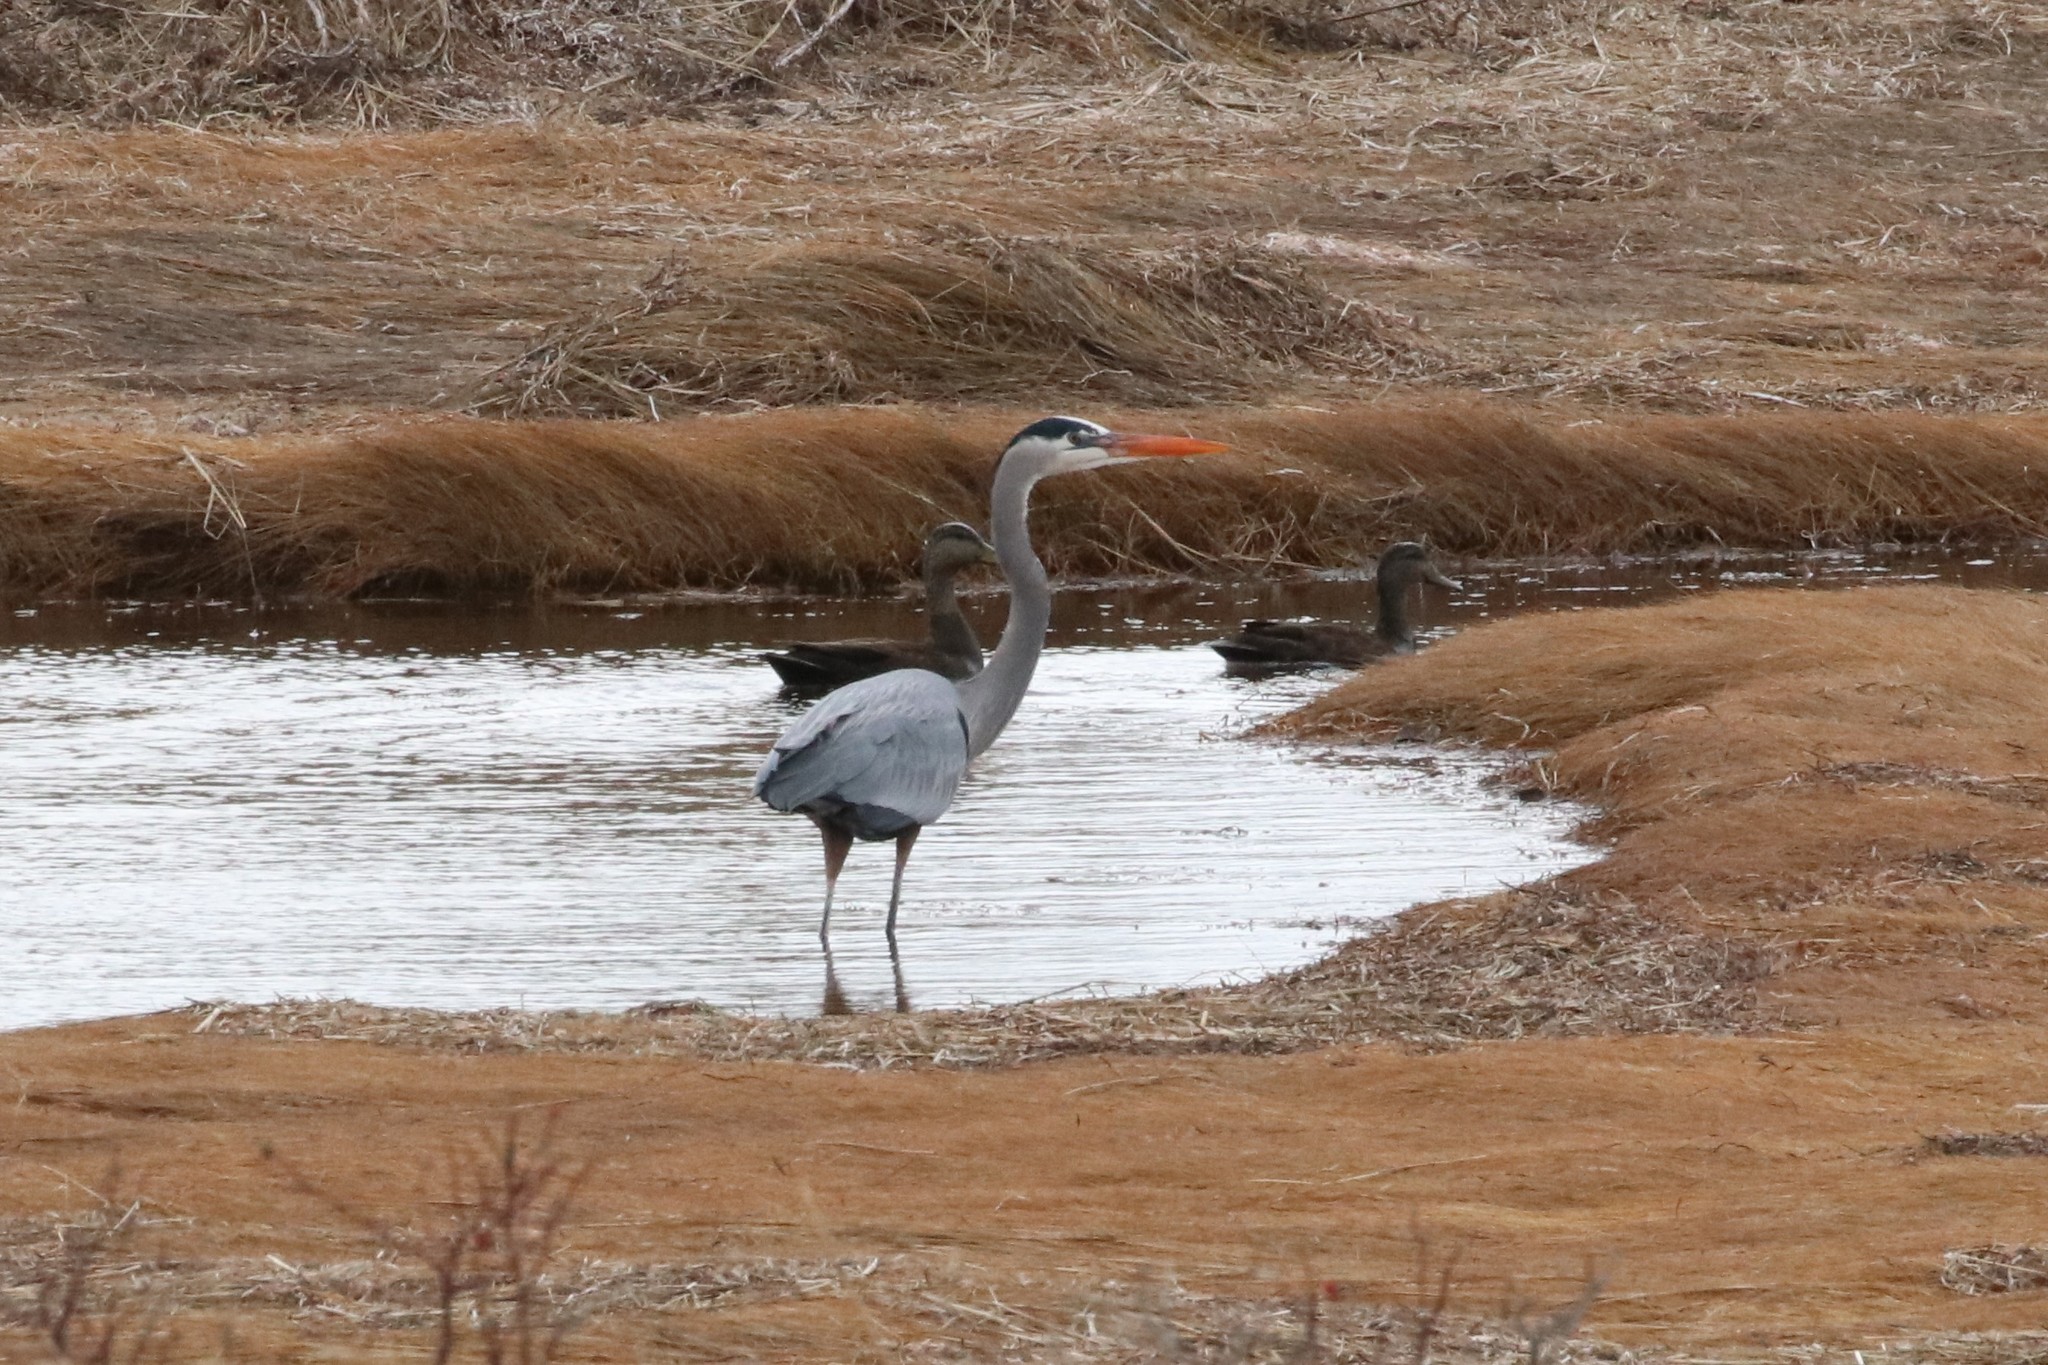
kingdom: Animalia
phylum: Chordata
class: Aves
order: Pelecaniformes
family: Ardeidae
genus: Ardea
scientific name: Ardea herodias
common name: Great blue heron
